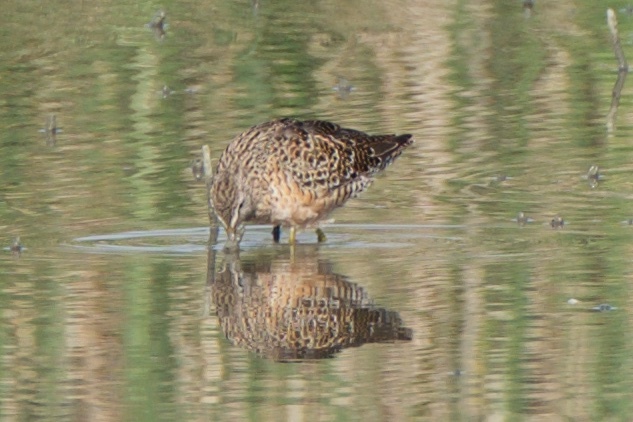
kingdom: Animalia
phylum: Chordata
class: Aves
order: Charadriiformes
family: Scolopacidae
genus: Limnodromus
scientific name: Limnodromus scolopaceus
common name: Long-billed dowitcher
